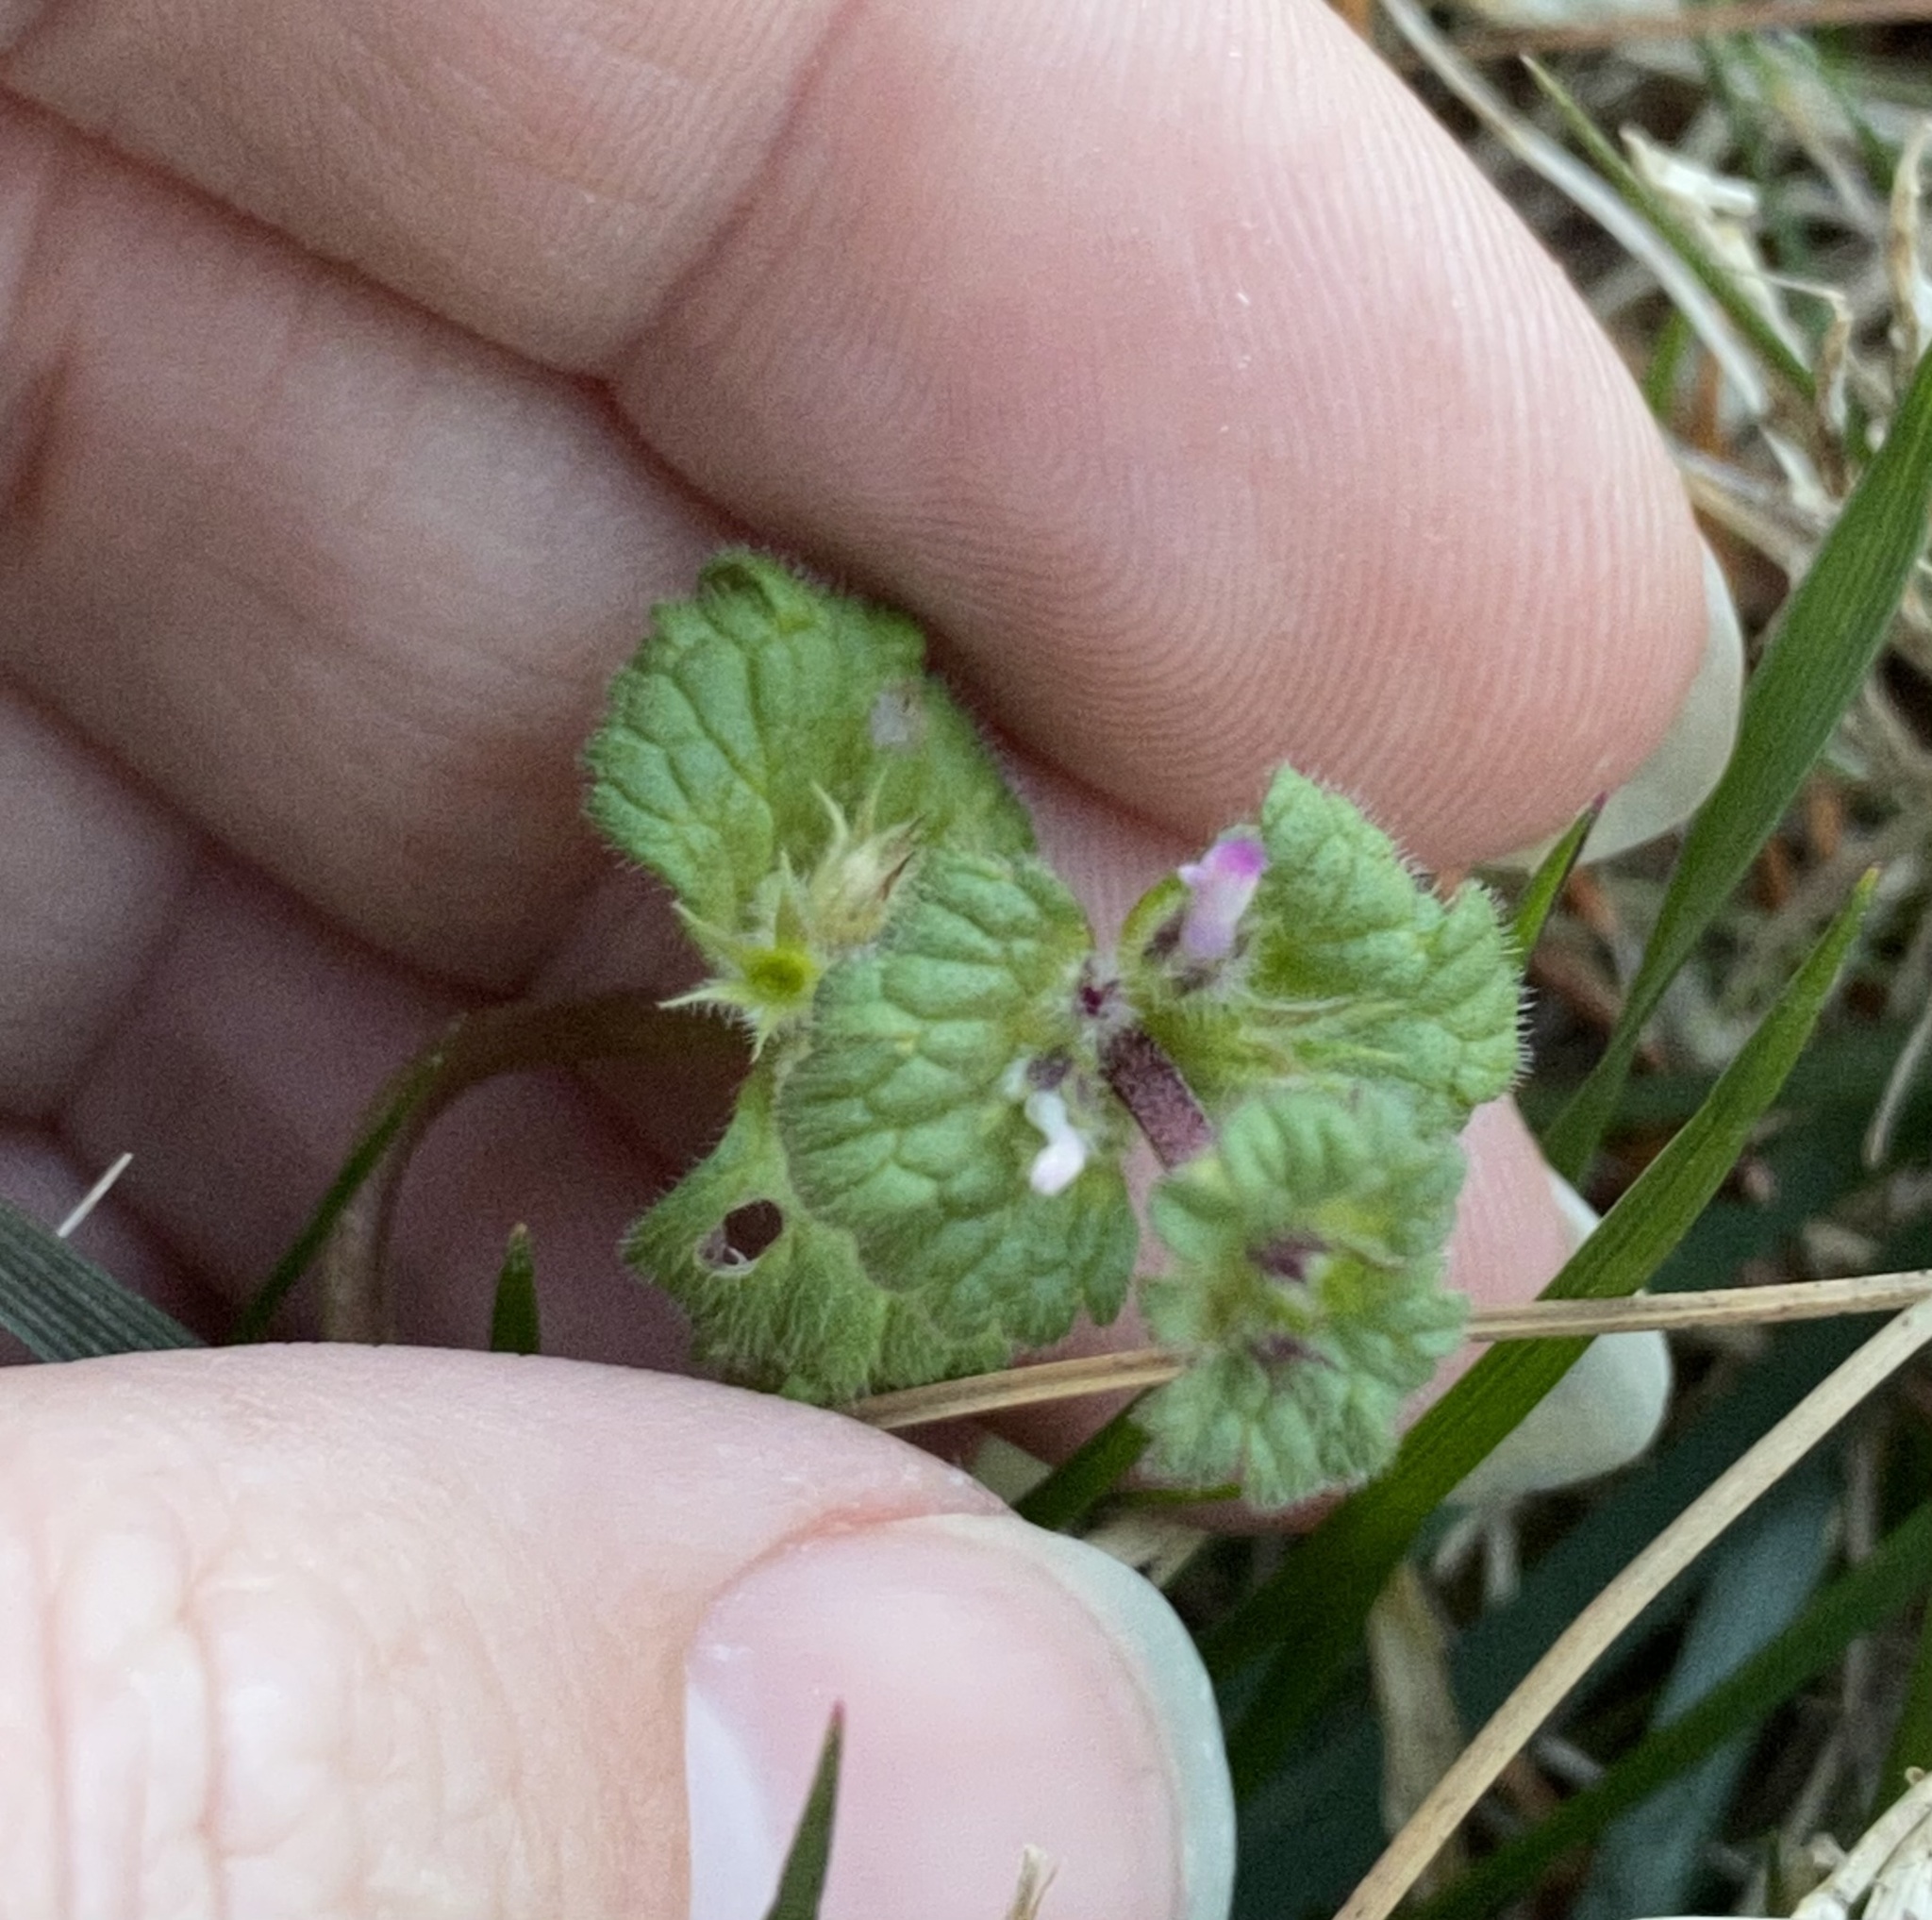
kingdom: Plantae
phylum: Tracheophyta
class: Magnoliopsida
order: Lamiales
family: Lamiaceae
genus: Lamium
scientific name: Lamium amplexicaule
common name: Henbit dead-nettle
